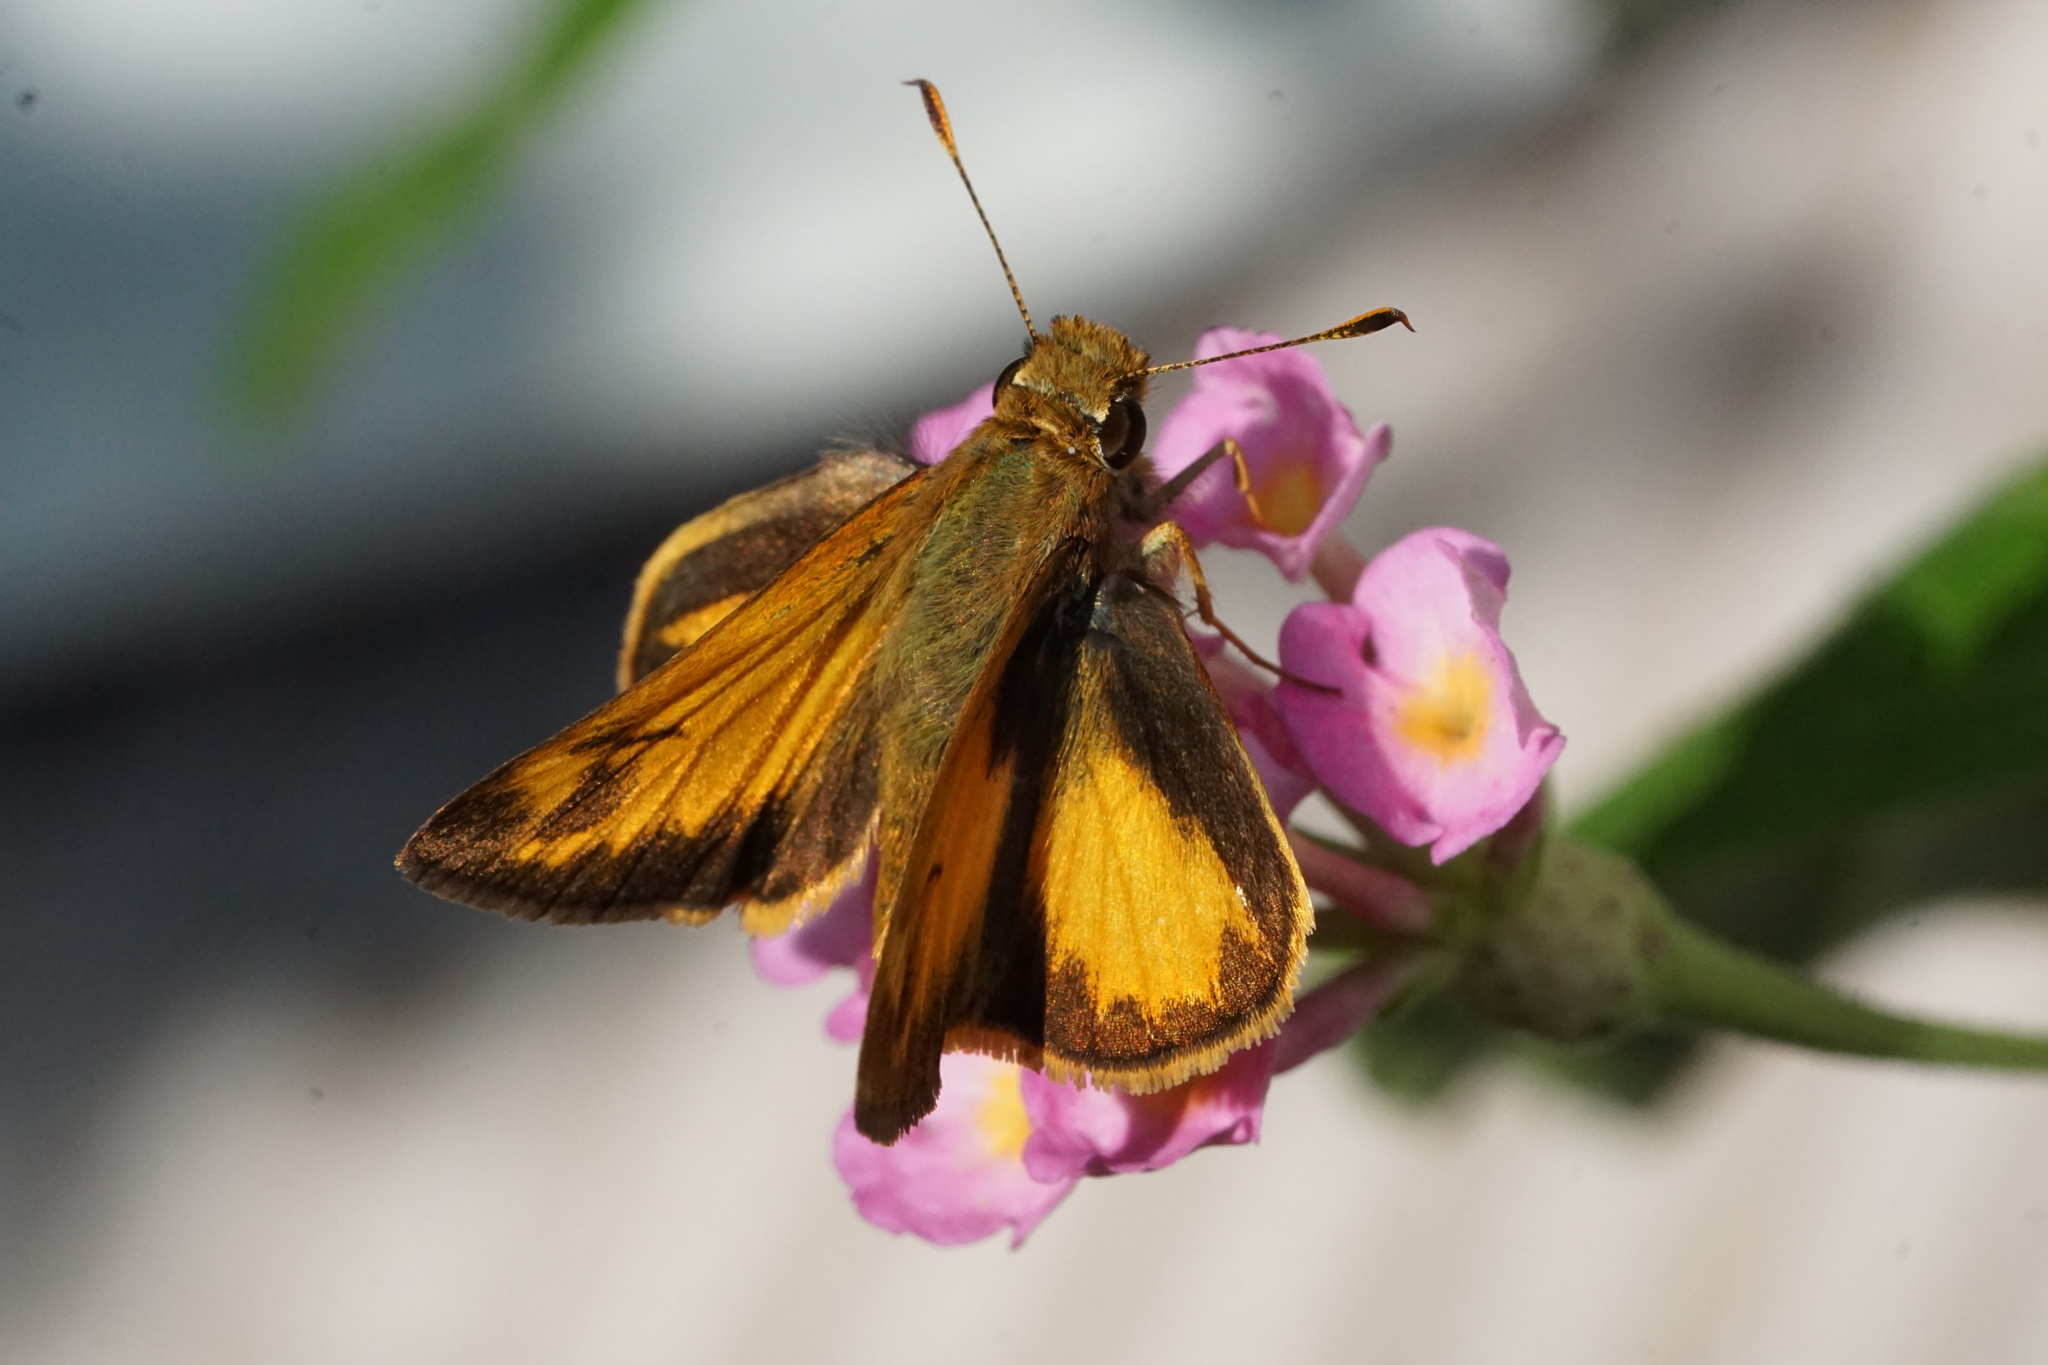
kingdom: Animalia
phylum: Arthropoda
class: Insecta
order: Lepidoptera
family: Hesperiidae
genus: Lon
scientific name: Lon zabulon
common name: Zabulon skipper
